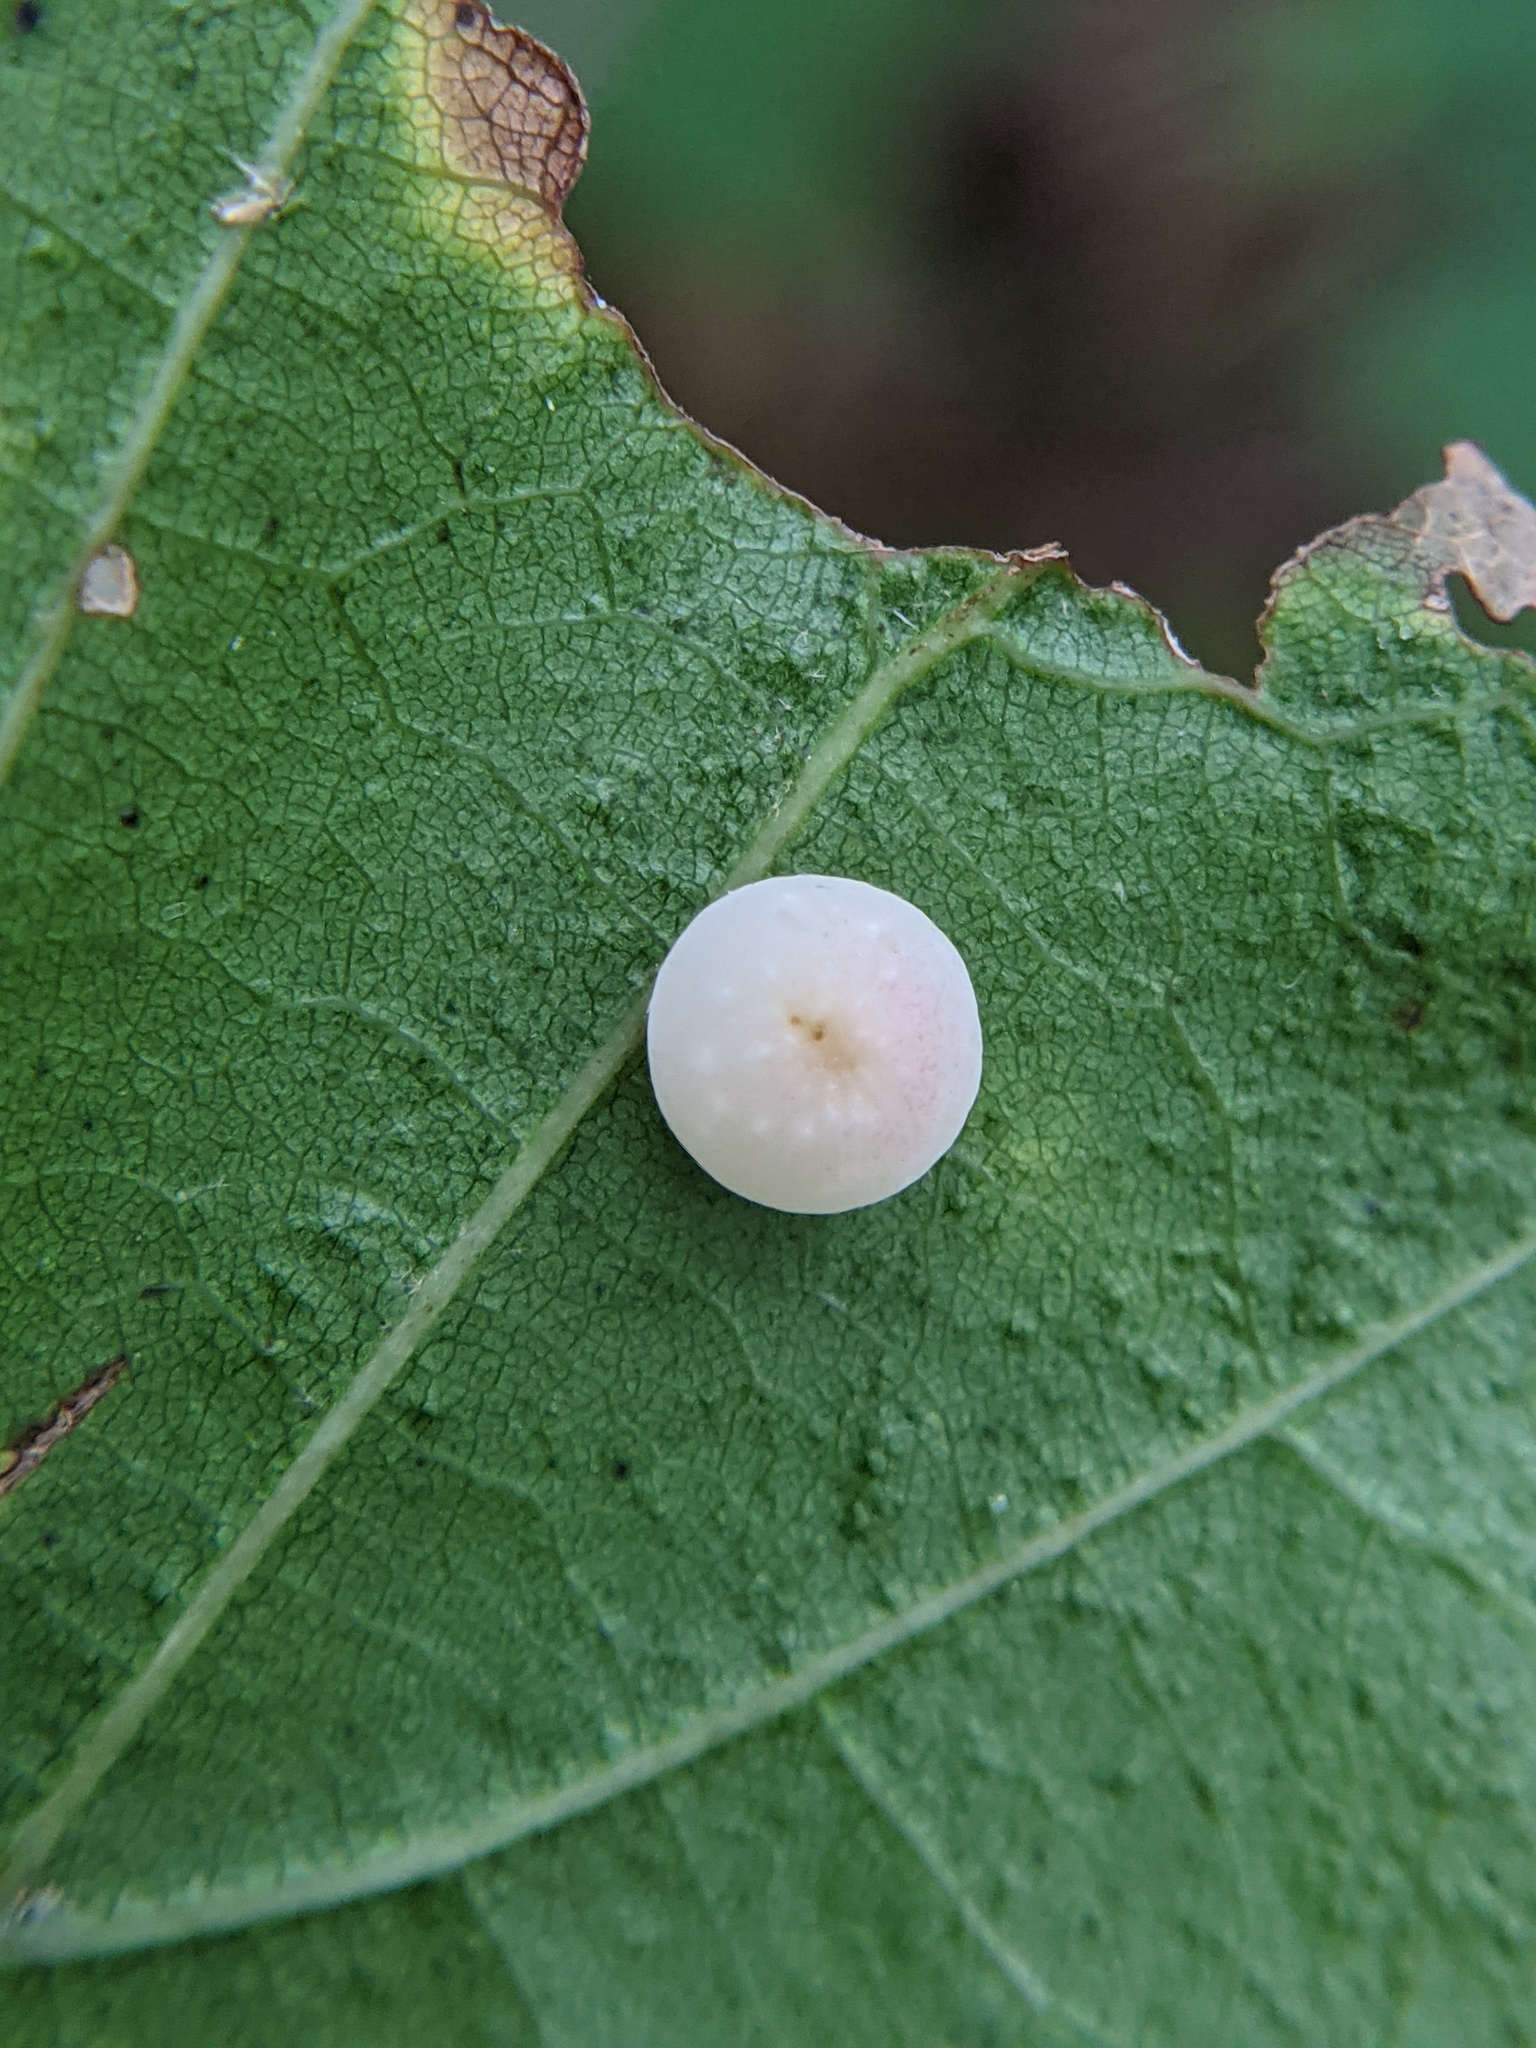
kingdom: Animalia
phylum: Arthropoda
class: Insecta
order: Hymenoptera
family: Cynipidae
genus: Zopheroteras
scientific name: Zopheroteras
